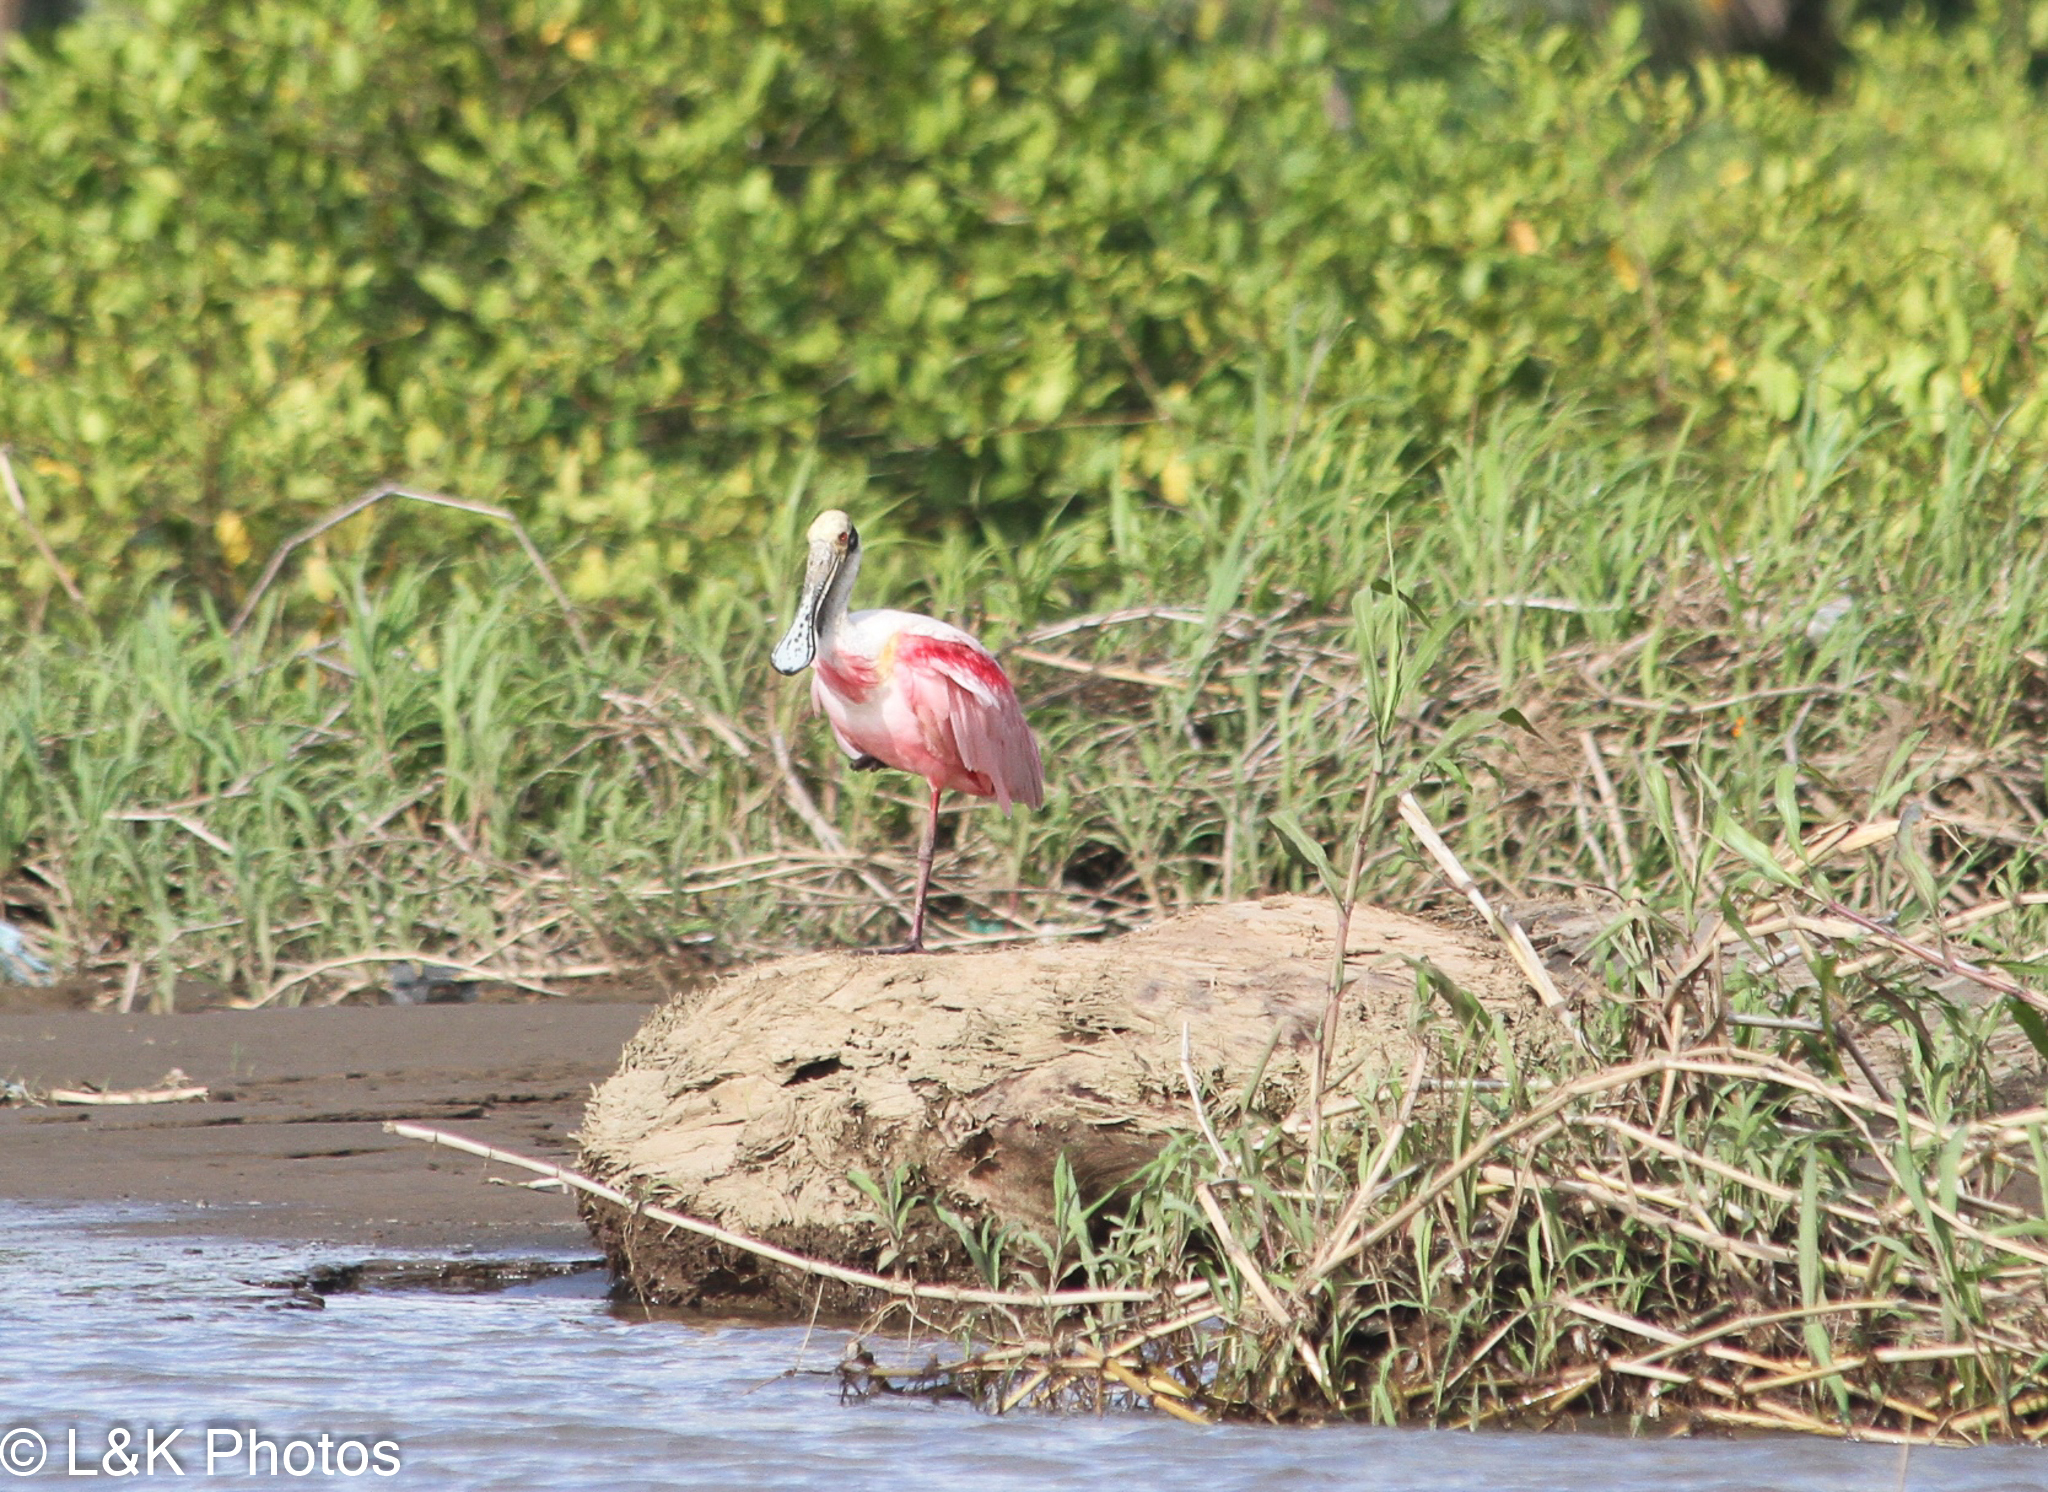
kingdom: Animalia
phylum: Chordata
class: Aves
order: Pelecaniformes
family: Threskiornithidae
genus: Platalea
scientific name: Platalea ajaja
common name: Roseate spoonbill
